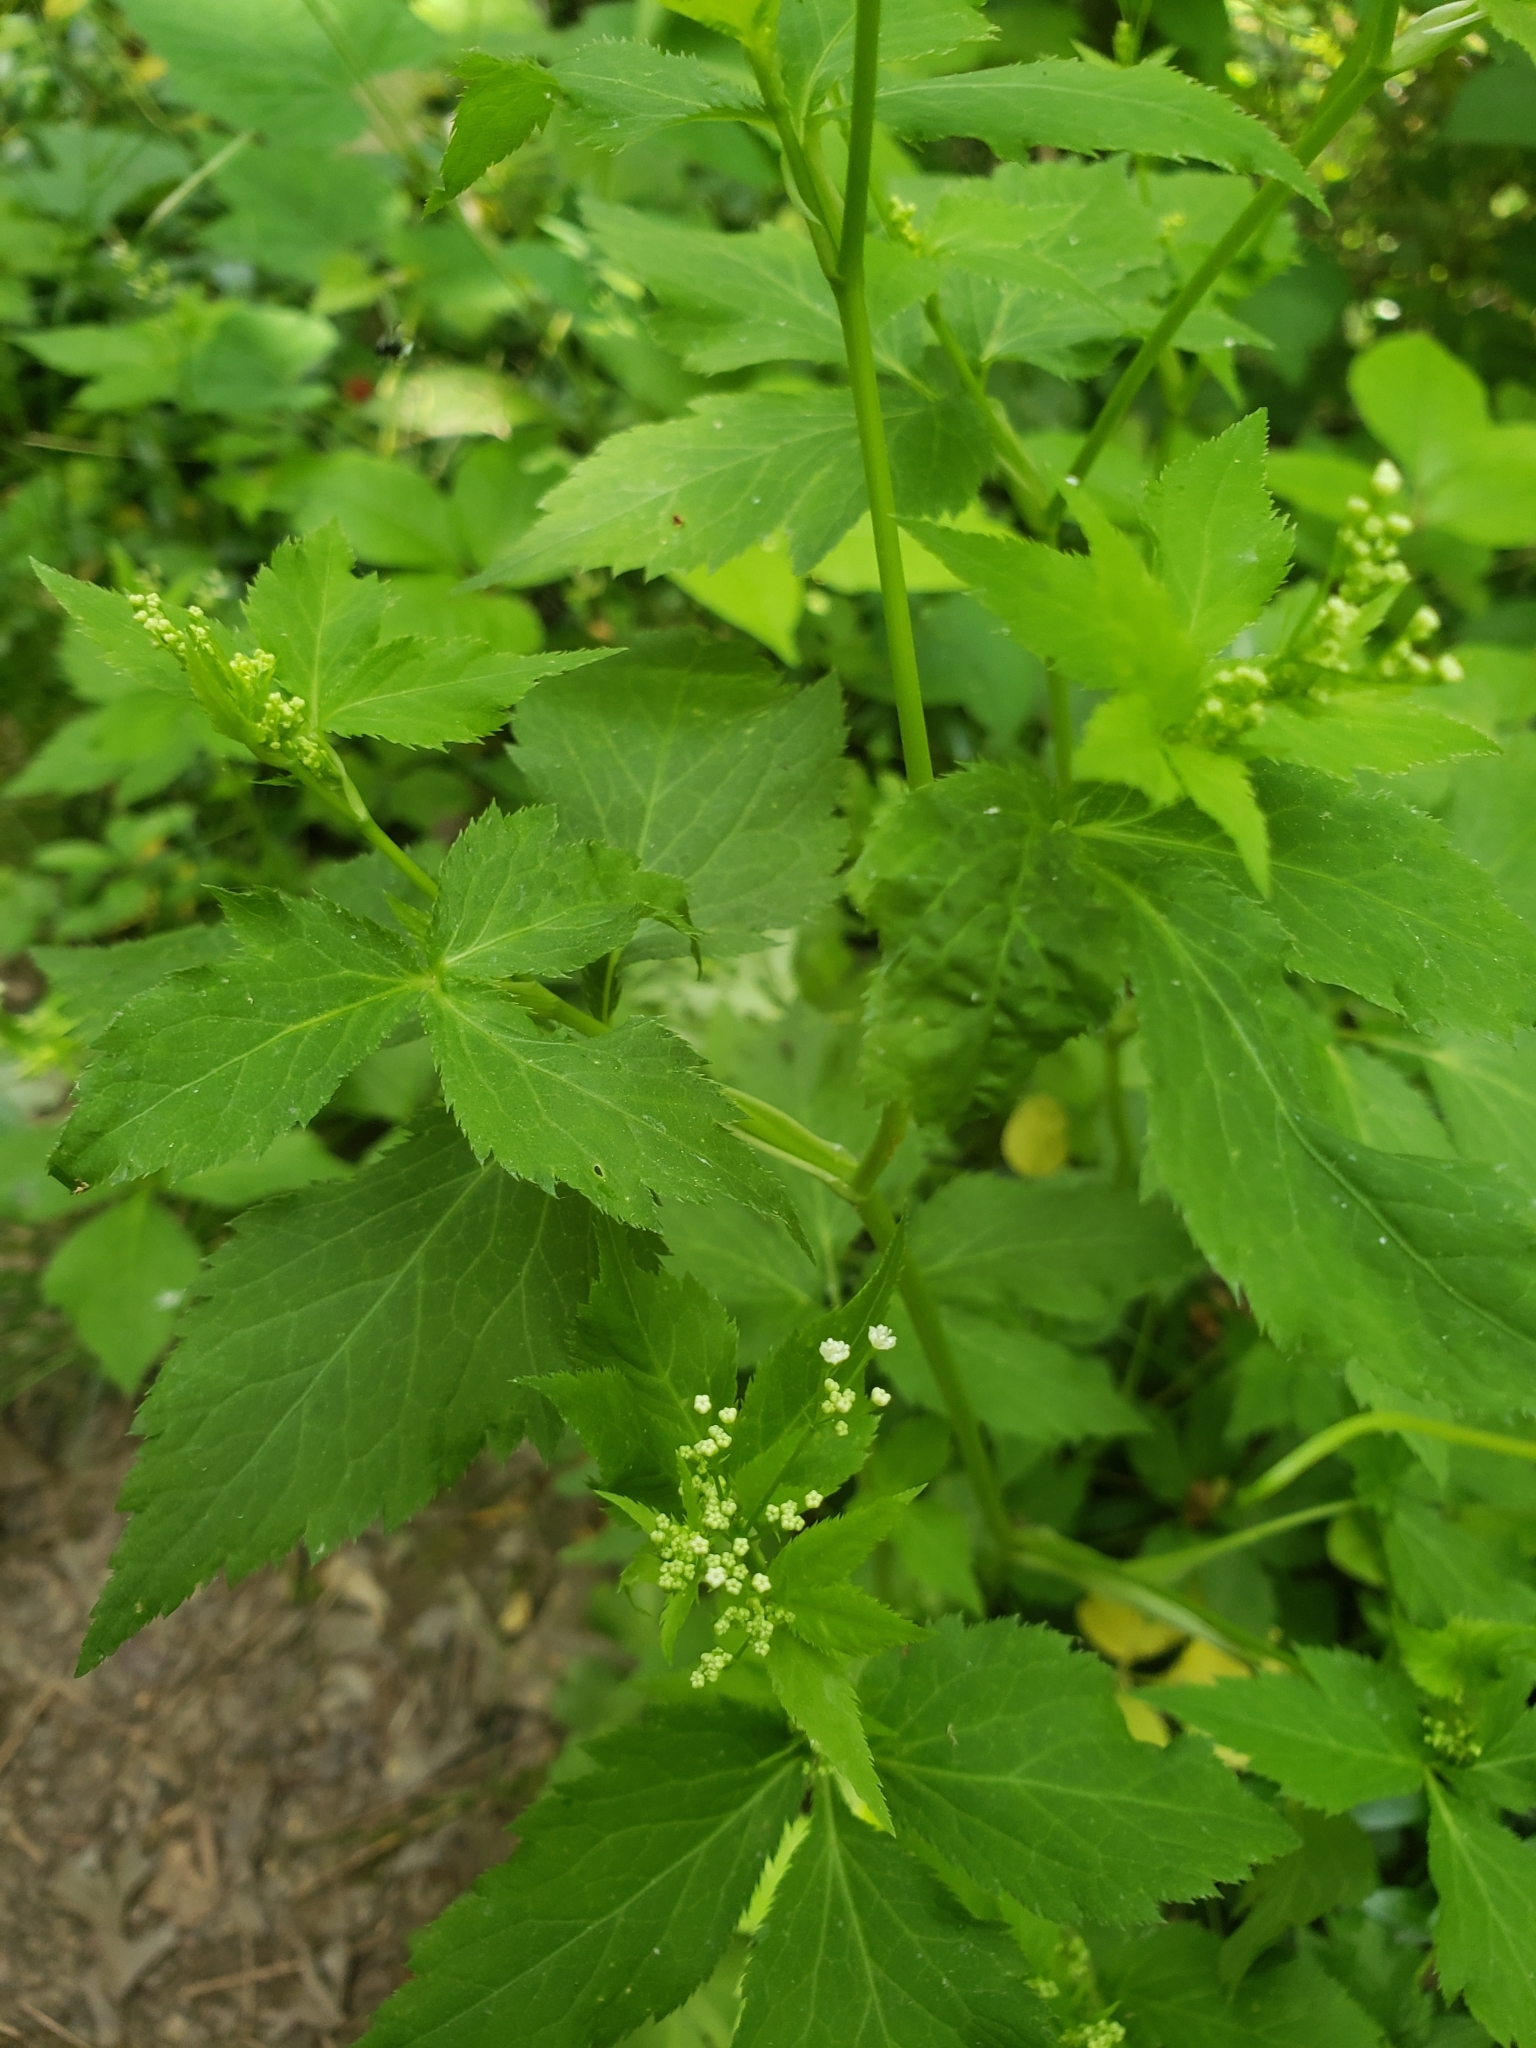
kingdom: Plantae
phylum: Tracheophyta
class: Magnoliopsida
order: Apiales
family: Apiaceae
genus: Cryptotaenia
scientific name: Cryptotaenia canadensis
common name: Honewort
